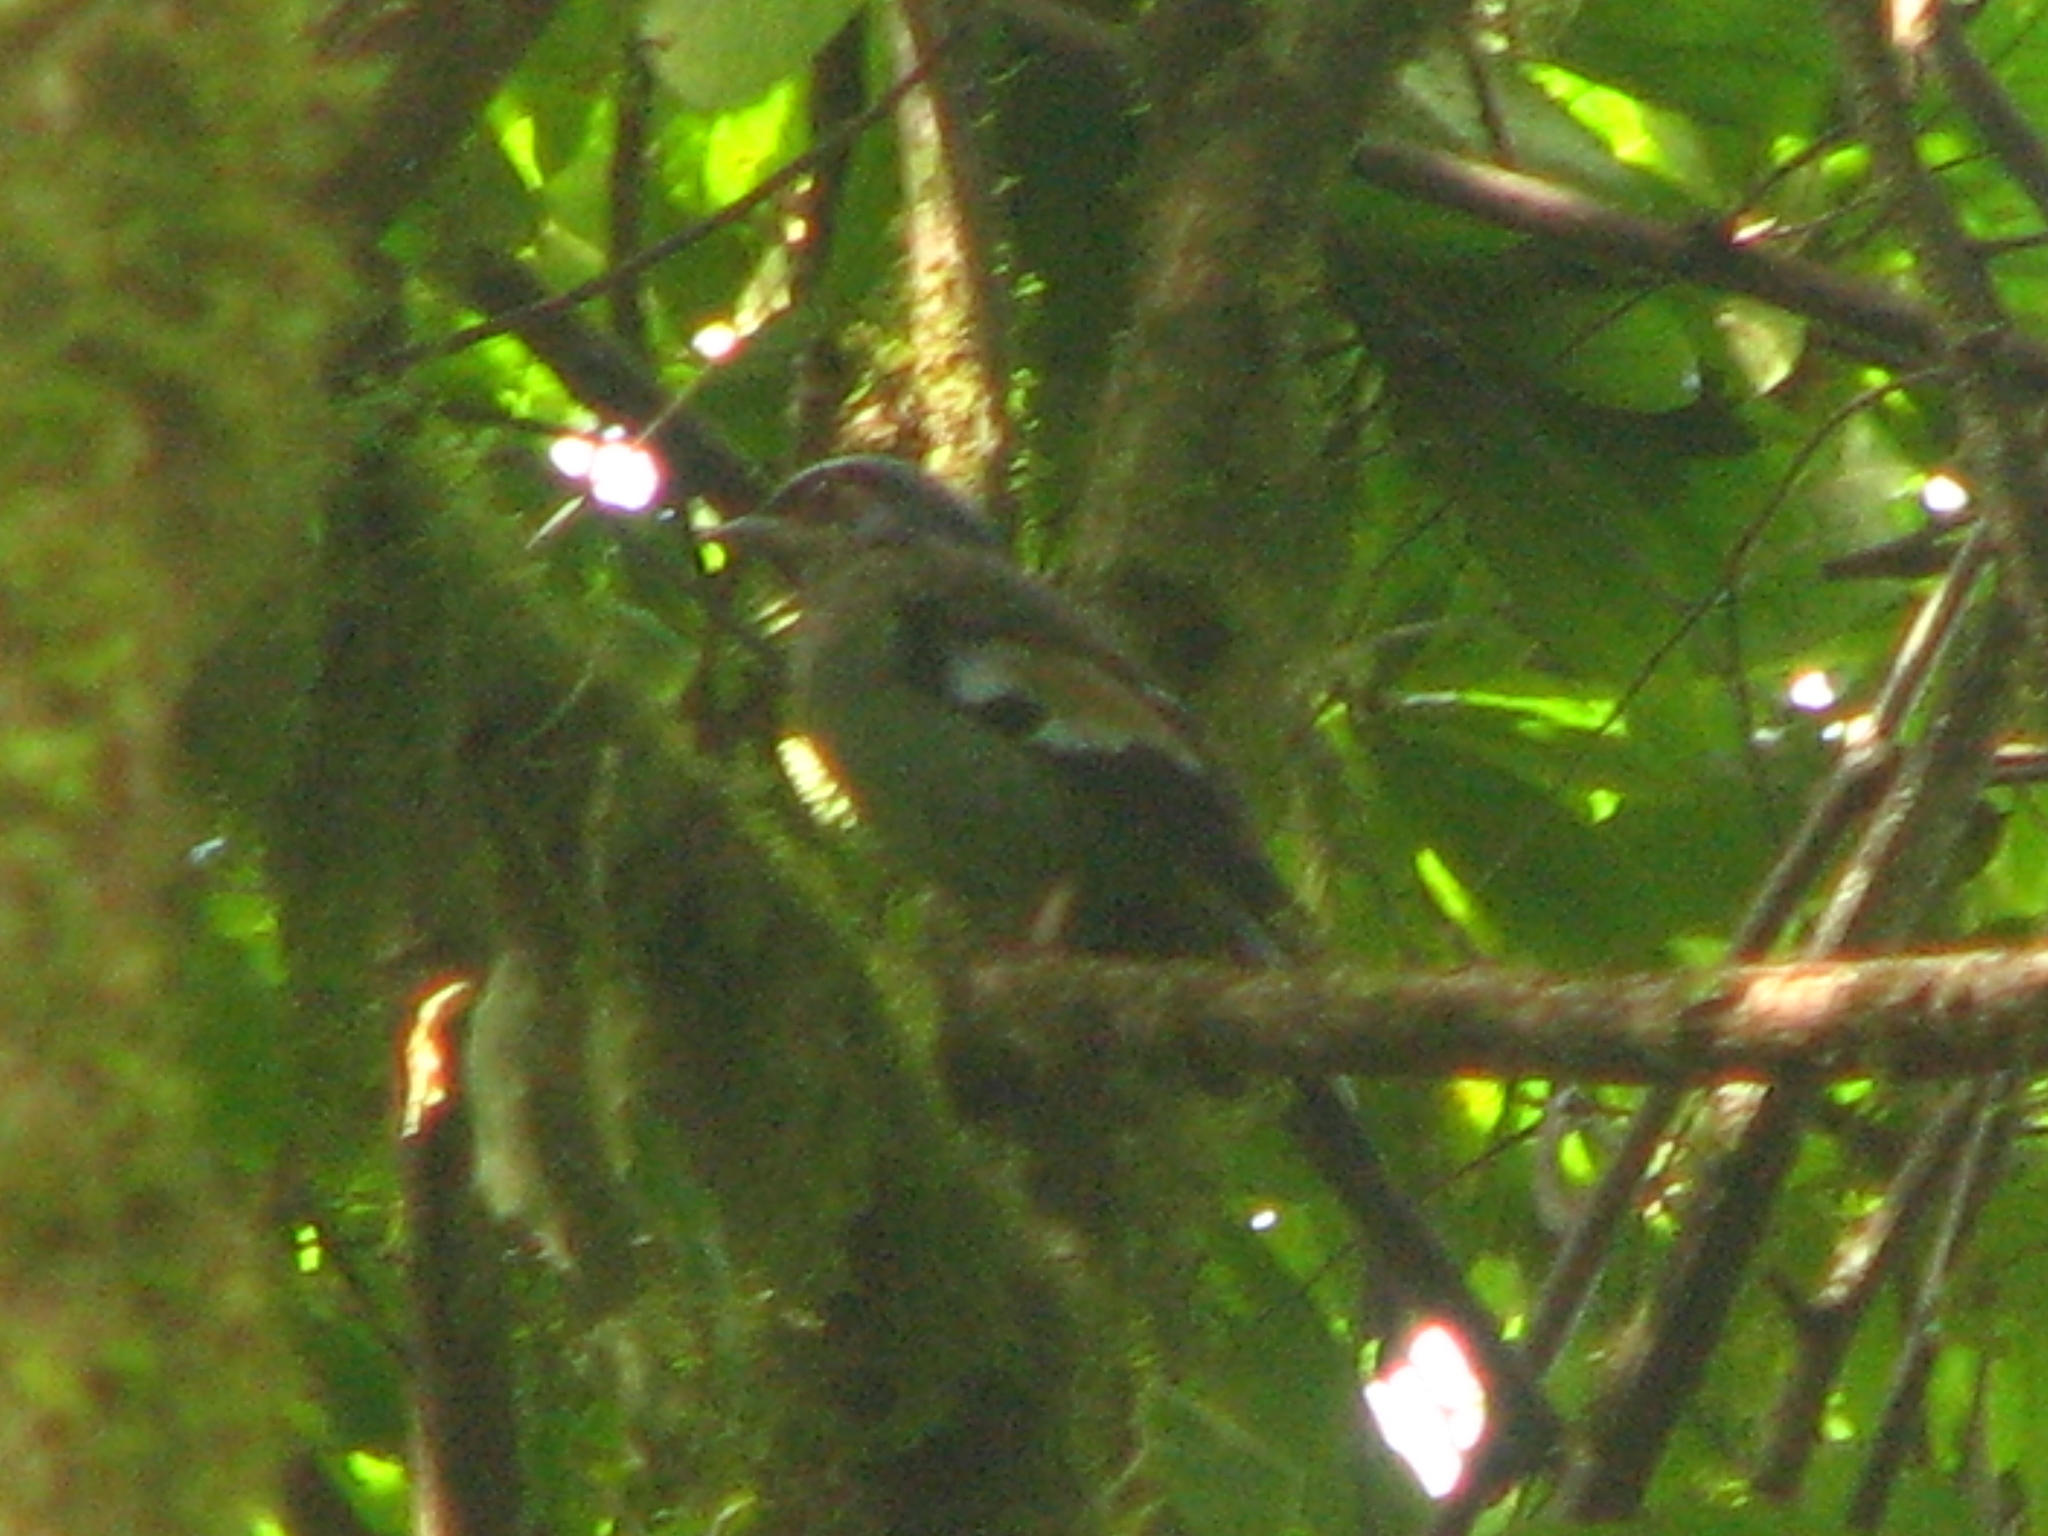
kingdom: Animalia
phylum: Chordata
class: Aves
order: Passeriformes
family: Turdidae
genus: Cochoa
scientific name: Cochoa viridis
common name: Green cochoa
